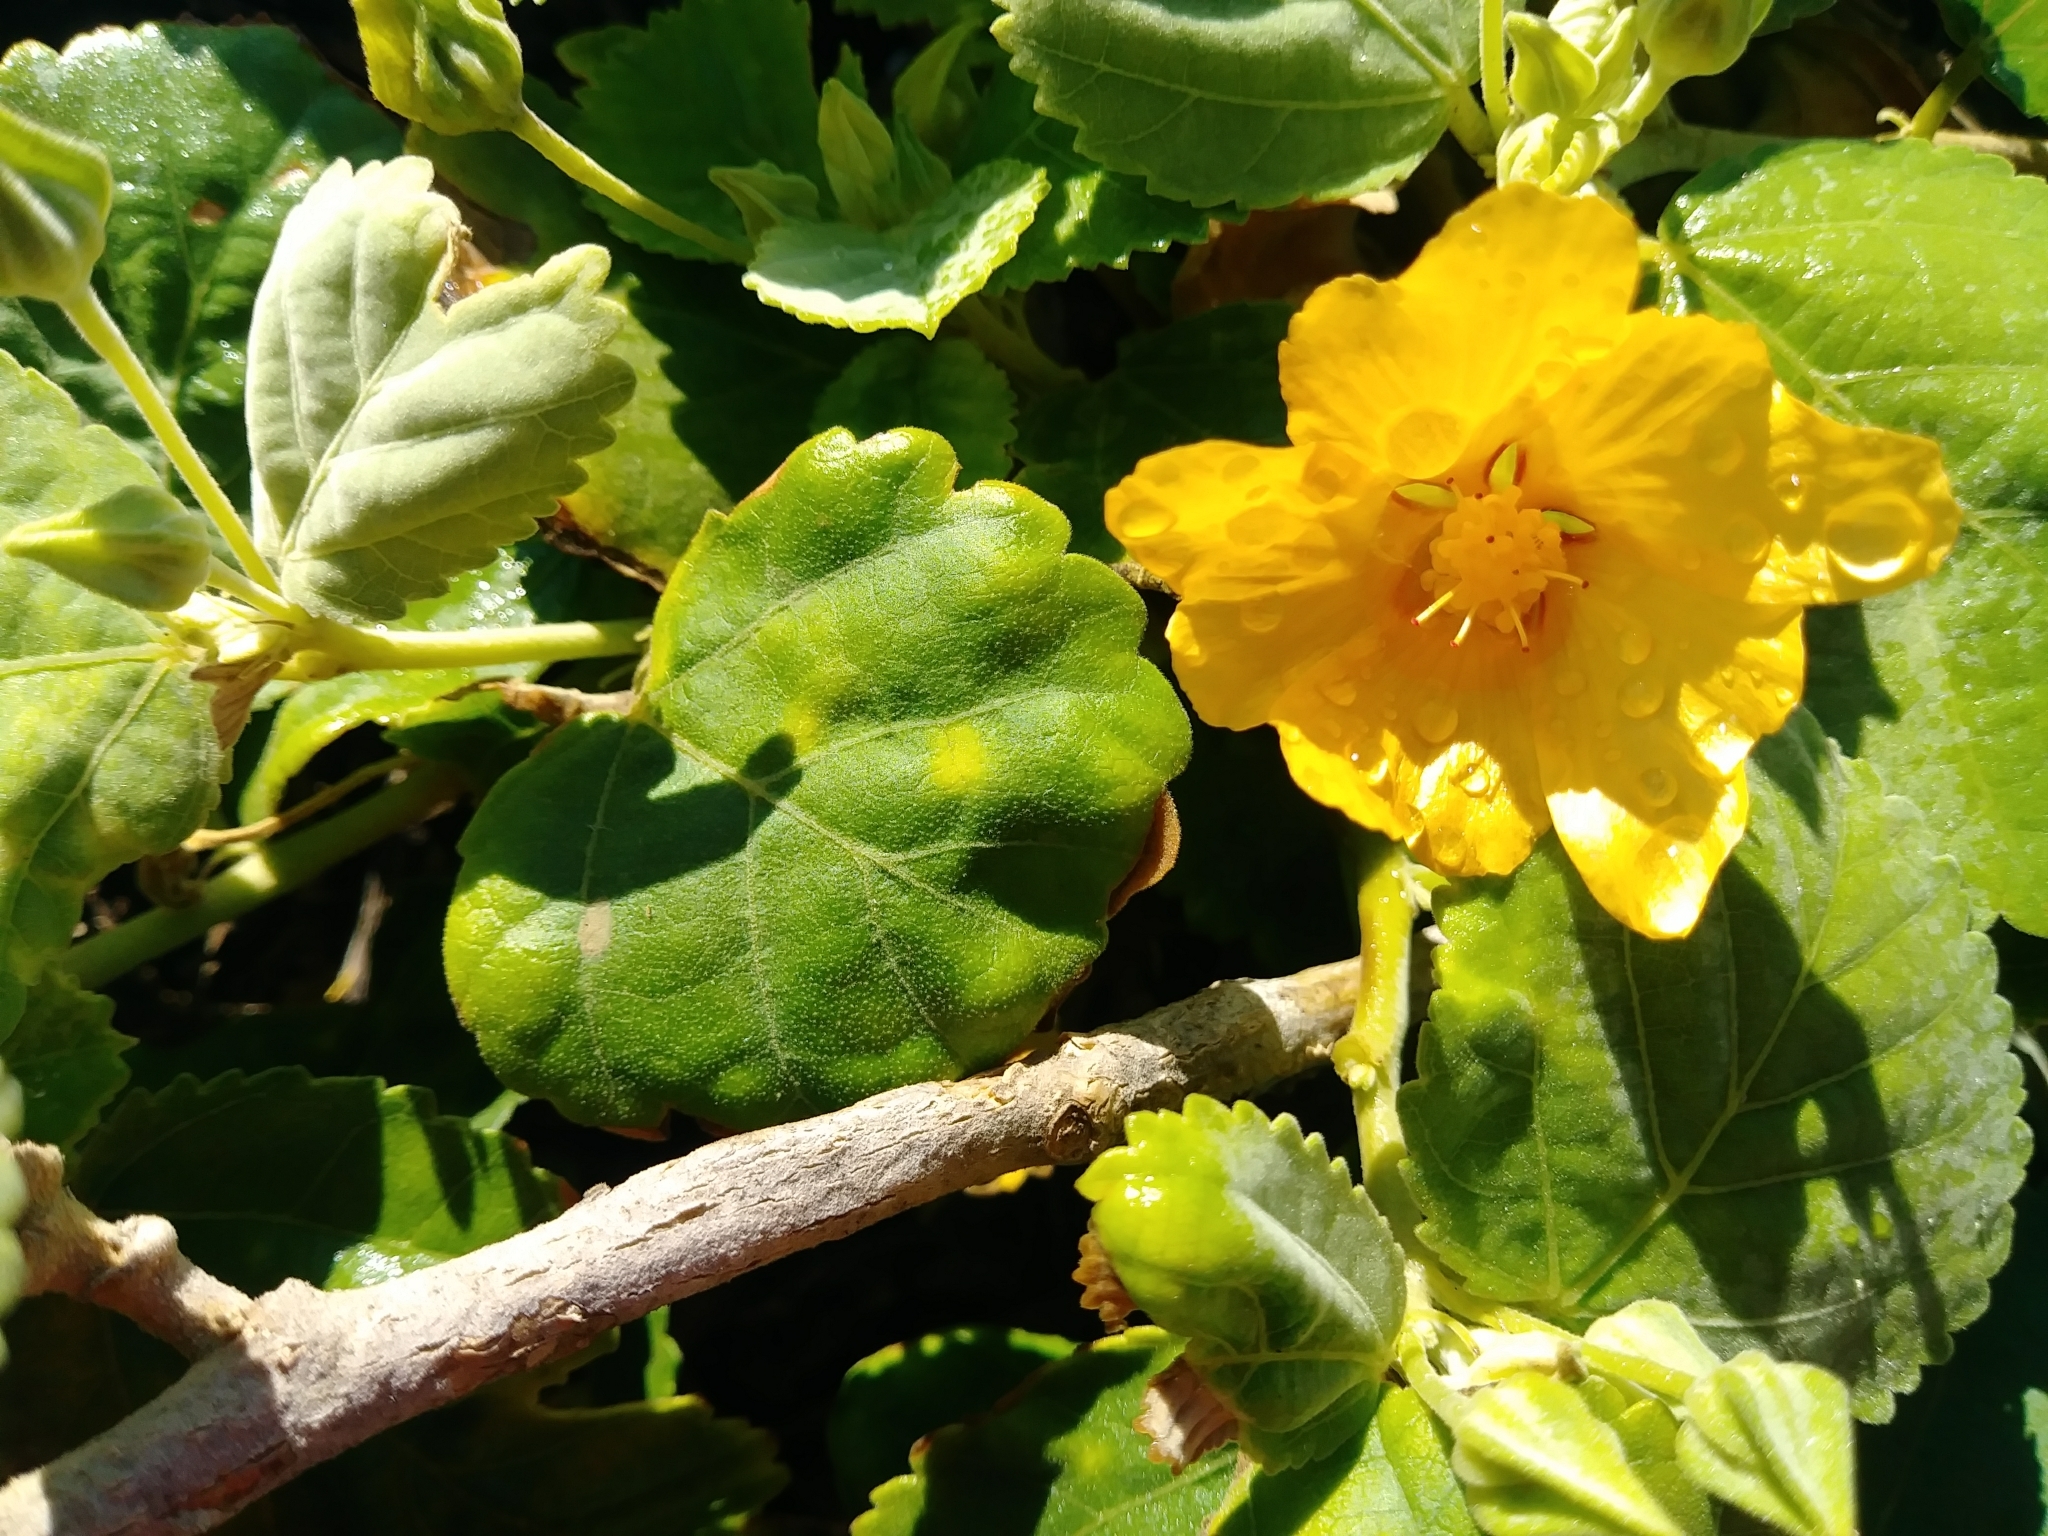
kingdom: Plantae
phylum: Tracheophyta
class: Magnoliopsida
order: Malvales
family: Malvaceae
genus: Sida
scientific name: Sida fallax
